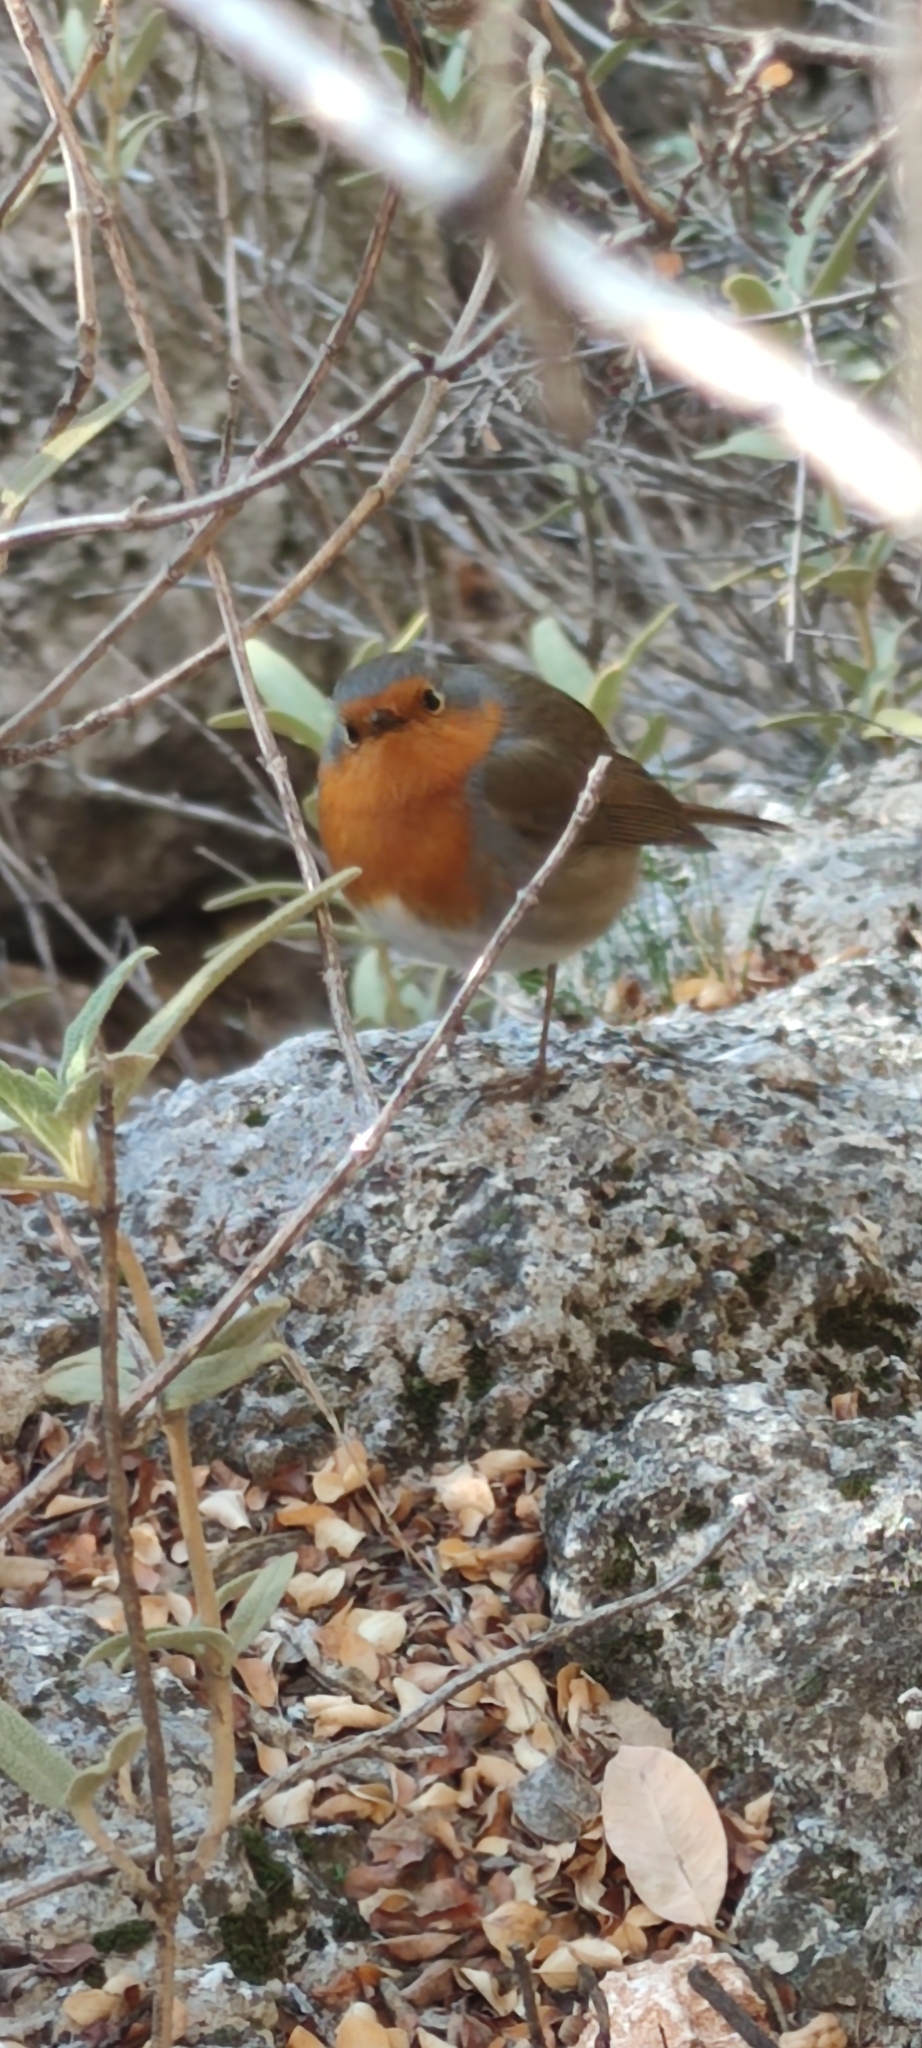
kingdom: Animalia
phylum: Chordata
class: Aves
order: Passeriformes
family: Muscicapidae
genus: Erithacus
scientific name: Erithacus rubecula
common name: European robin
